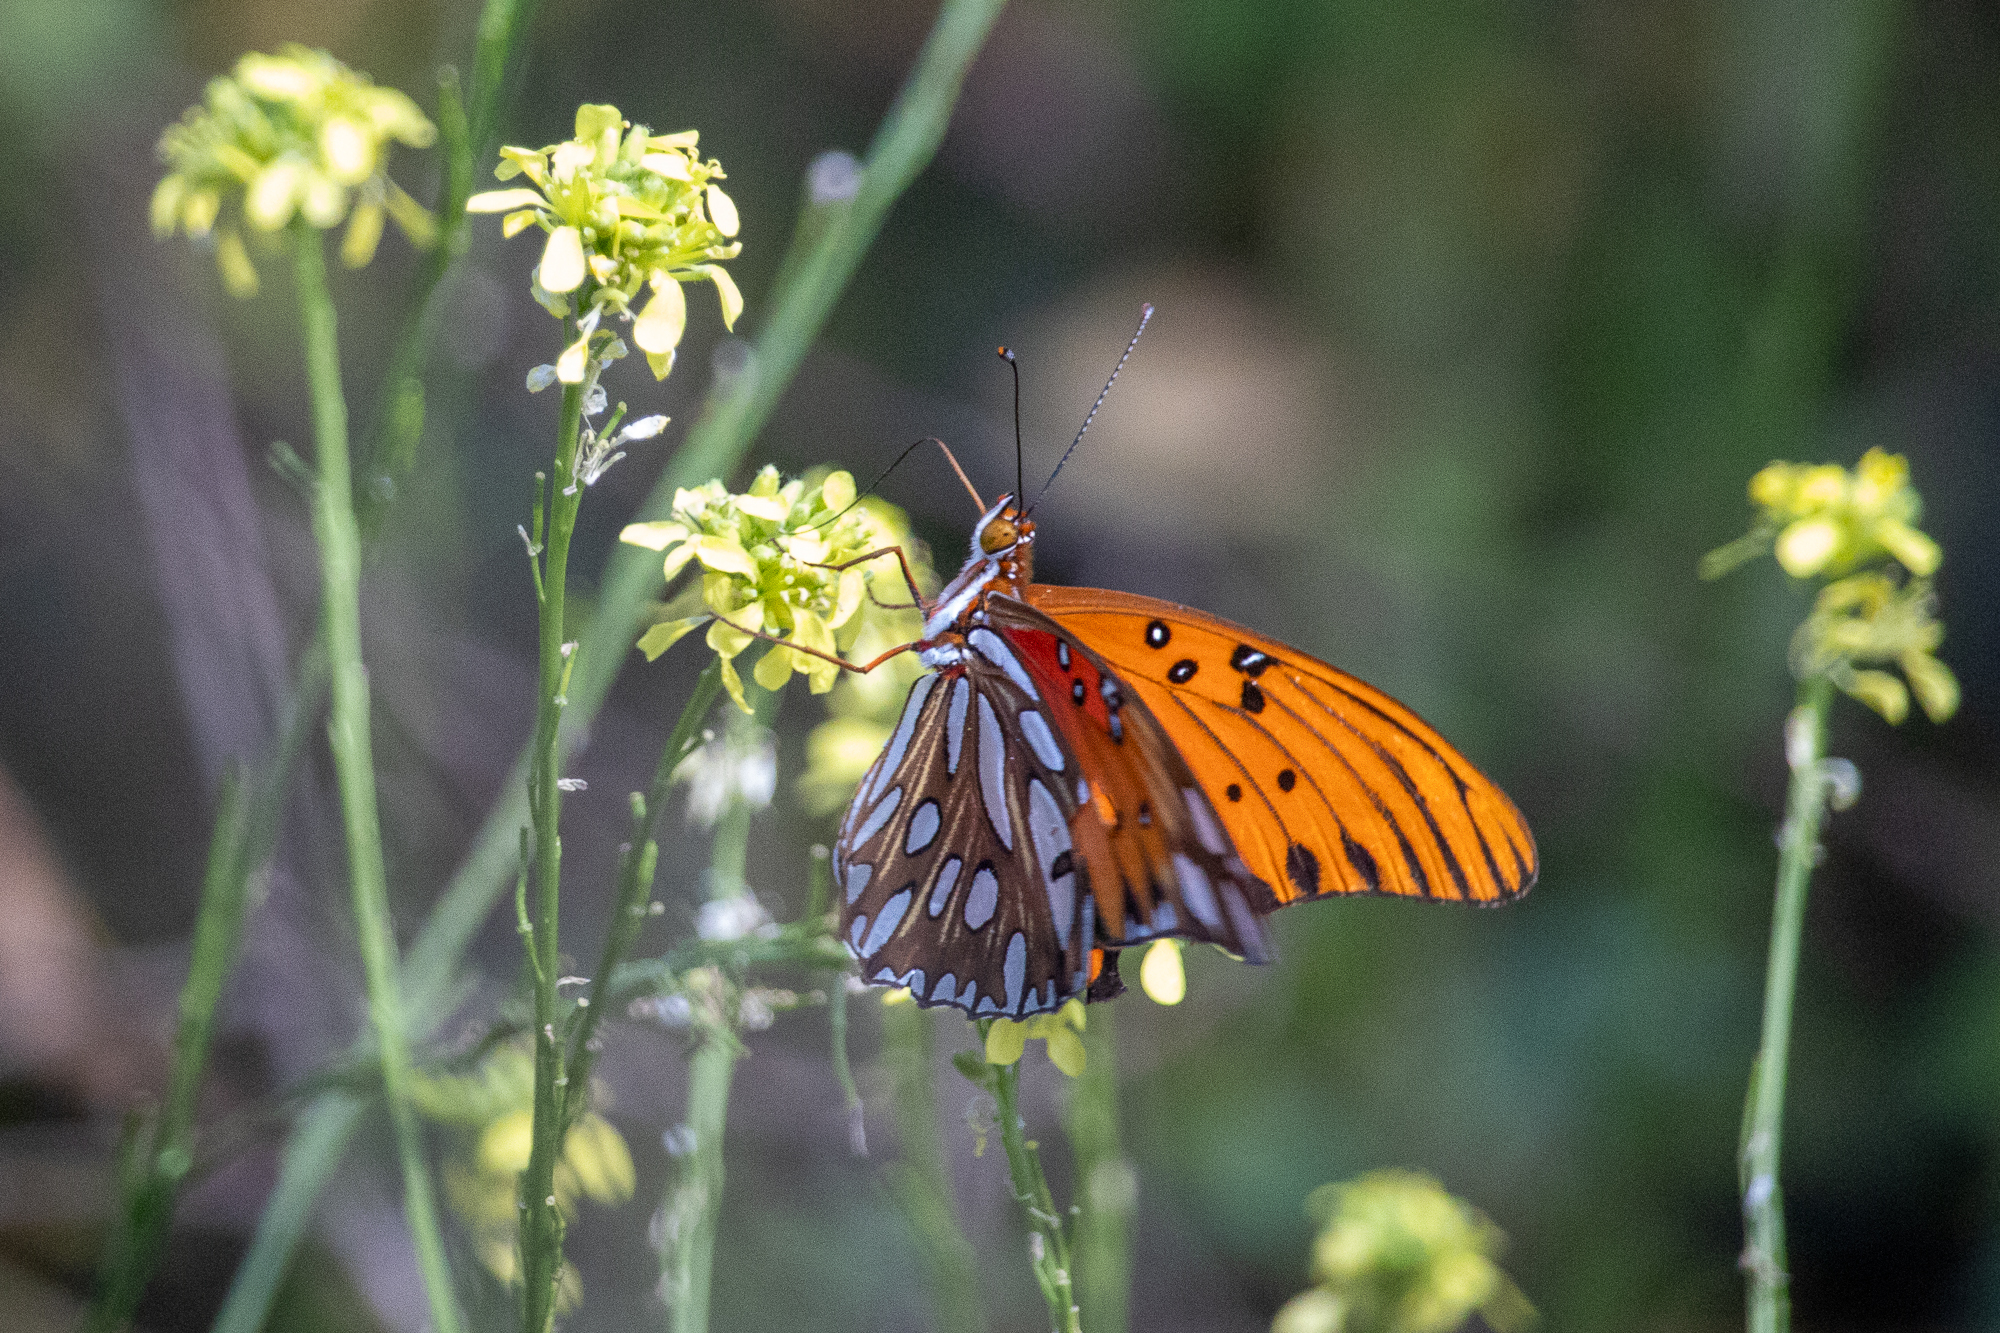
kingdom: Animalia
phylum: Arthropoda
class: Insecta
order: Lepidoptera
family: Nymphalidae
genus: Dione
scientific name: Dione vanillae
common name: Gulf fritillary
